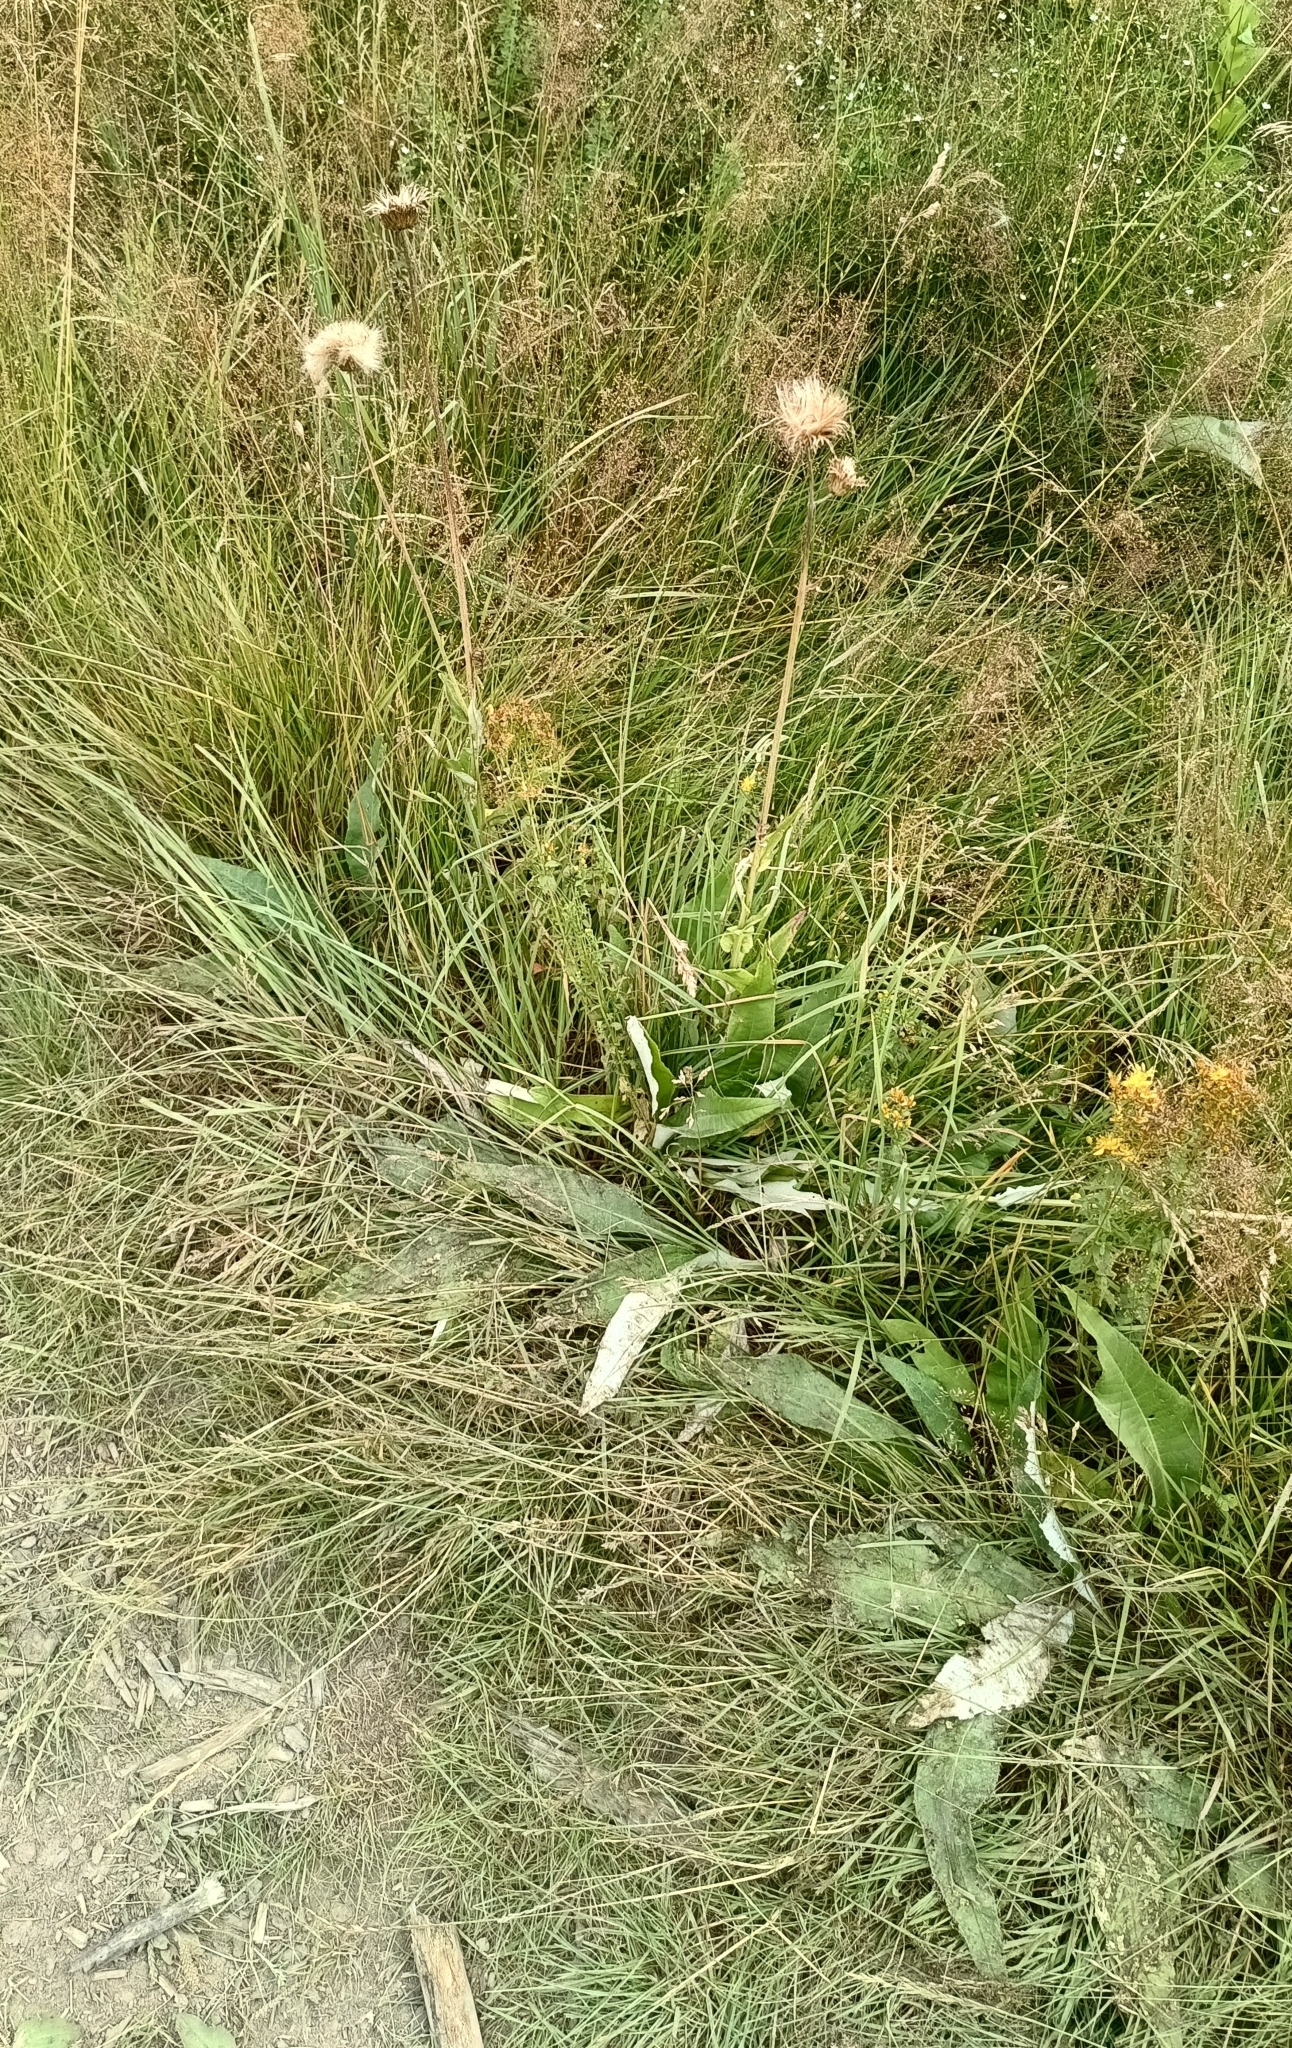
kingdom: Plantae
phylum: Tracheophyta
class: Magnoliopsida
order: Asterales
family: Asteraceae
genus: Cirsium
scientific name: Cirsium heterophyllum
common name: Melancholy thistle
